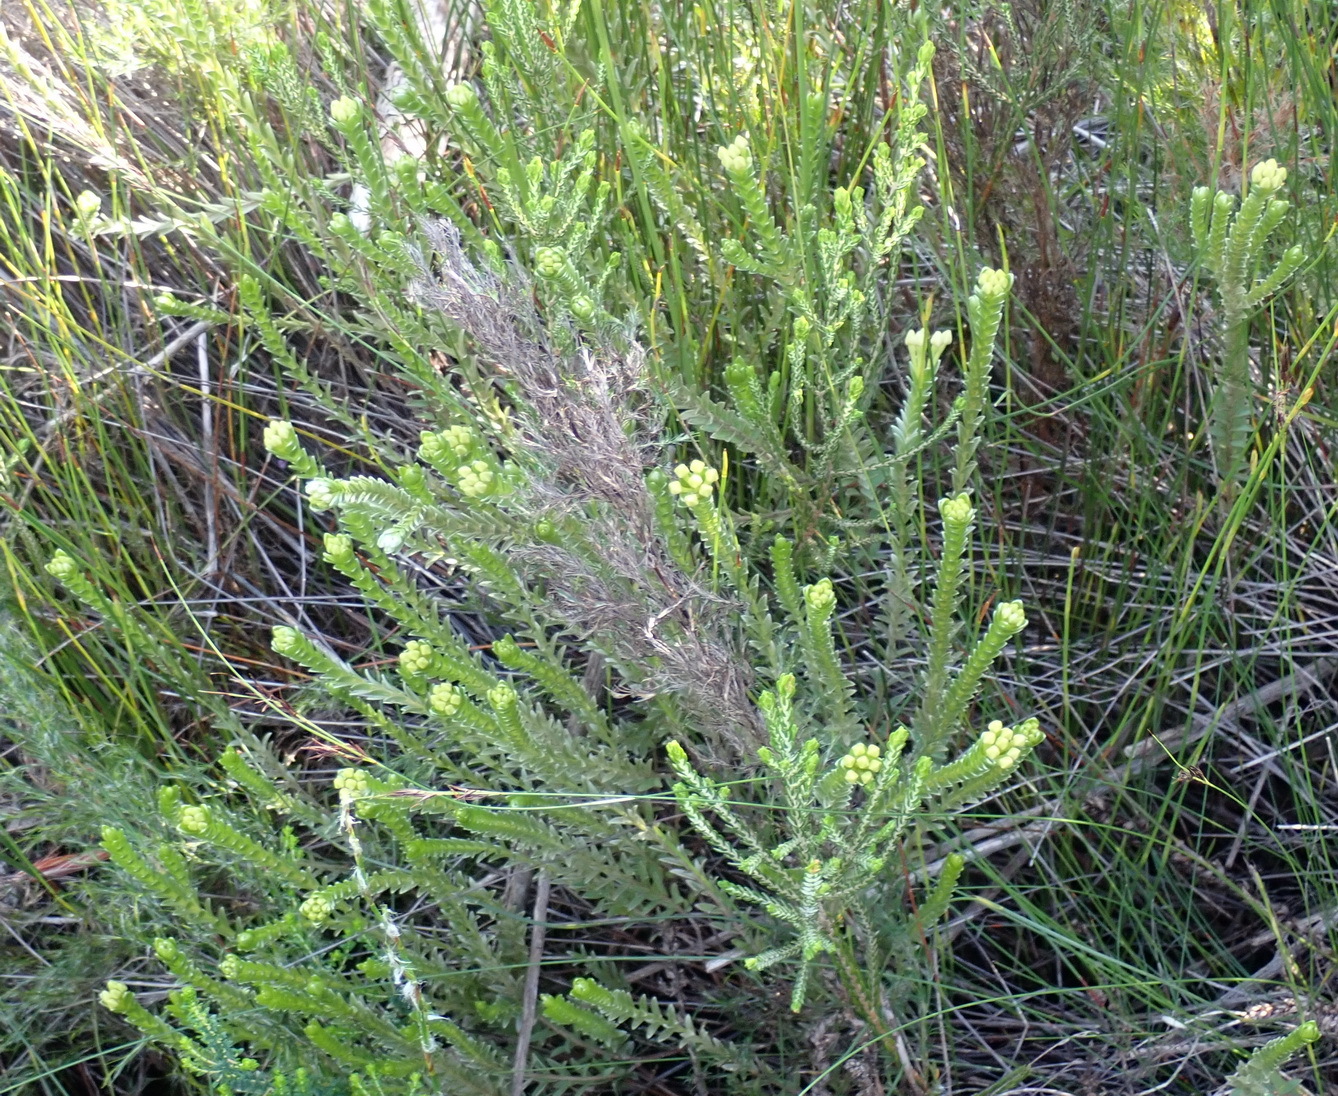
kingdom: Plantae
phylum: Tracheophyta
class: Magnoliopsida
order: Malvales
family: Thymelaeaceae
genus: Gnidia
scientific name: Gnidia chrysophylla
